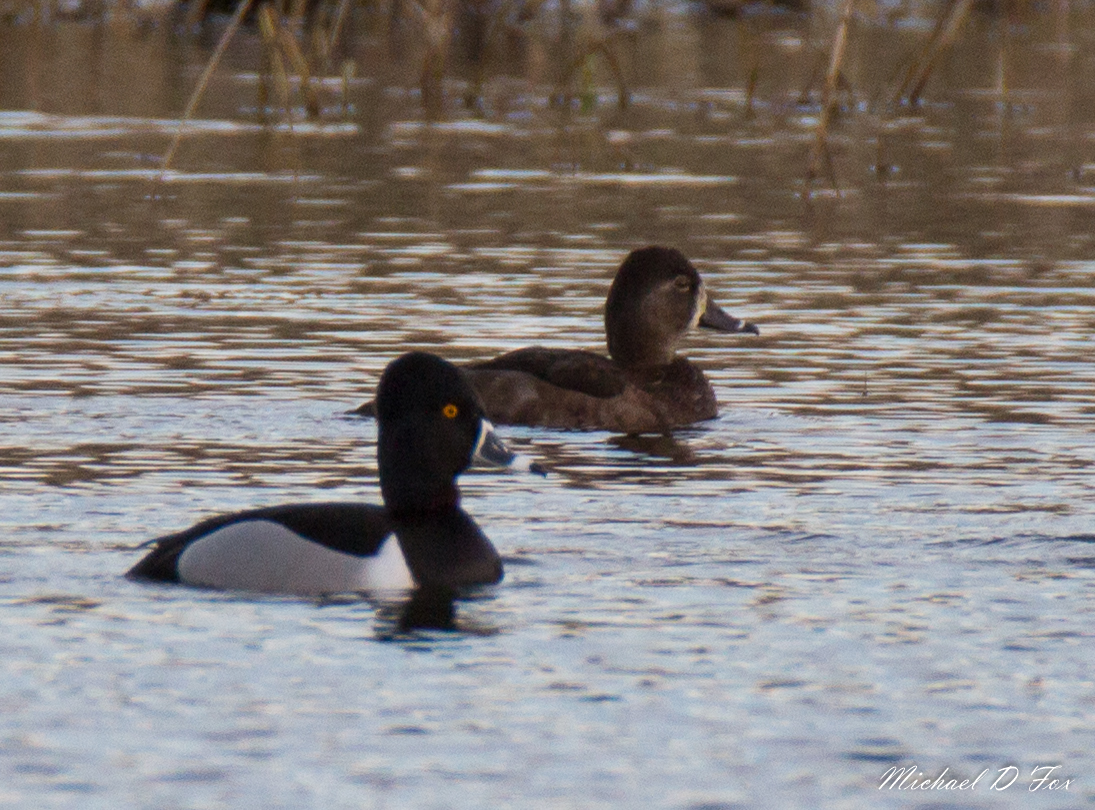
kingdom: Animalia
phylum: Chordata
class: Aves
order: Anseriformes
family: Anatidae
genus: Aythya
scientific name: Aythya collaris
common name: Ring-necked duck
